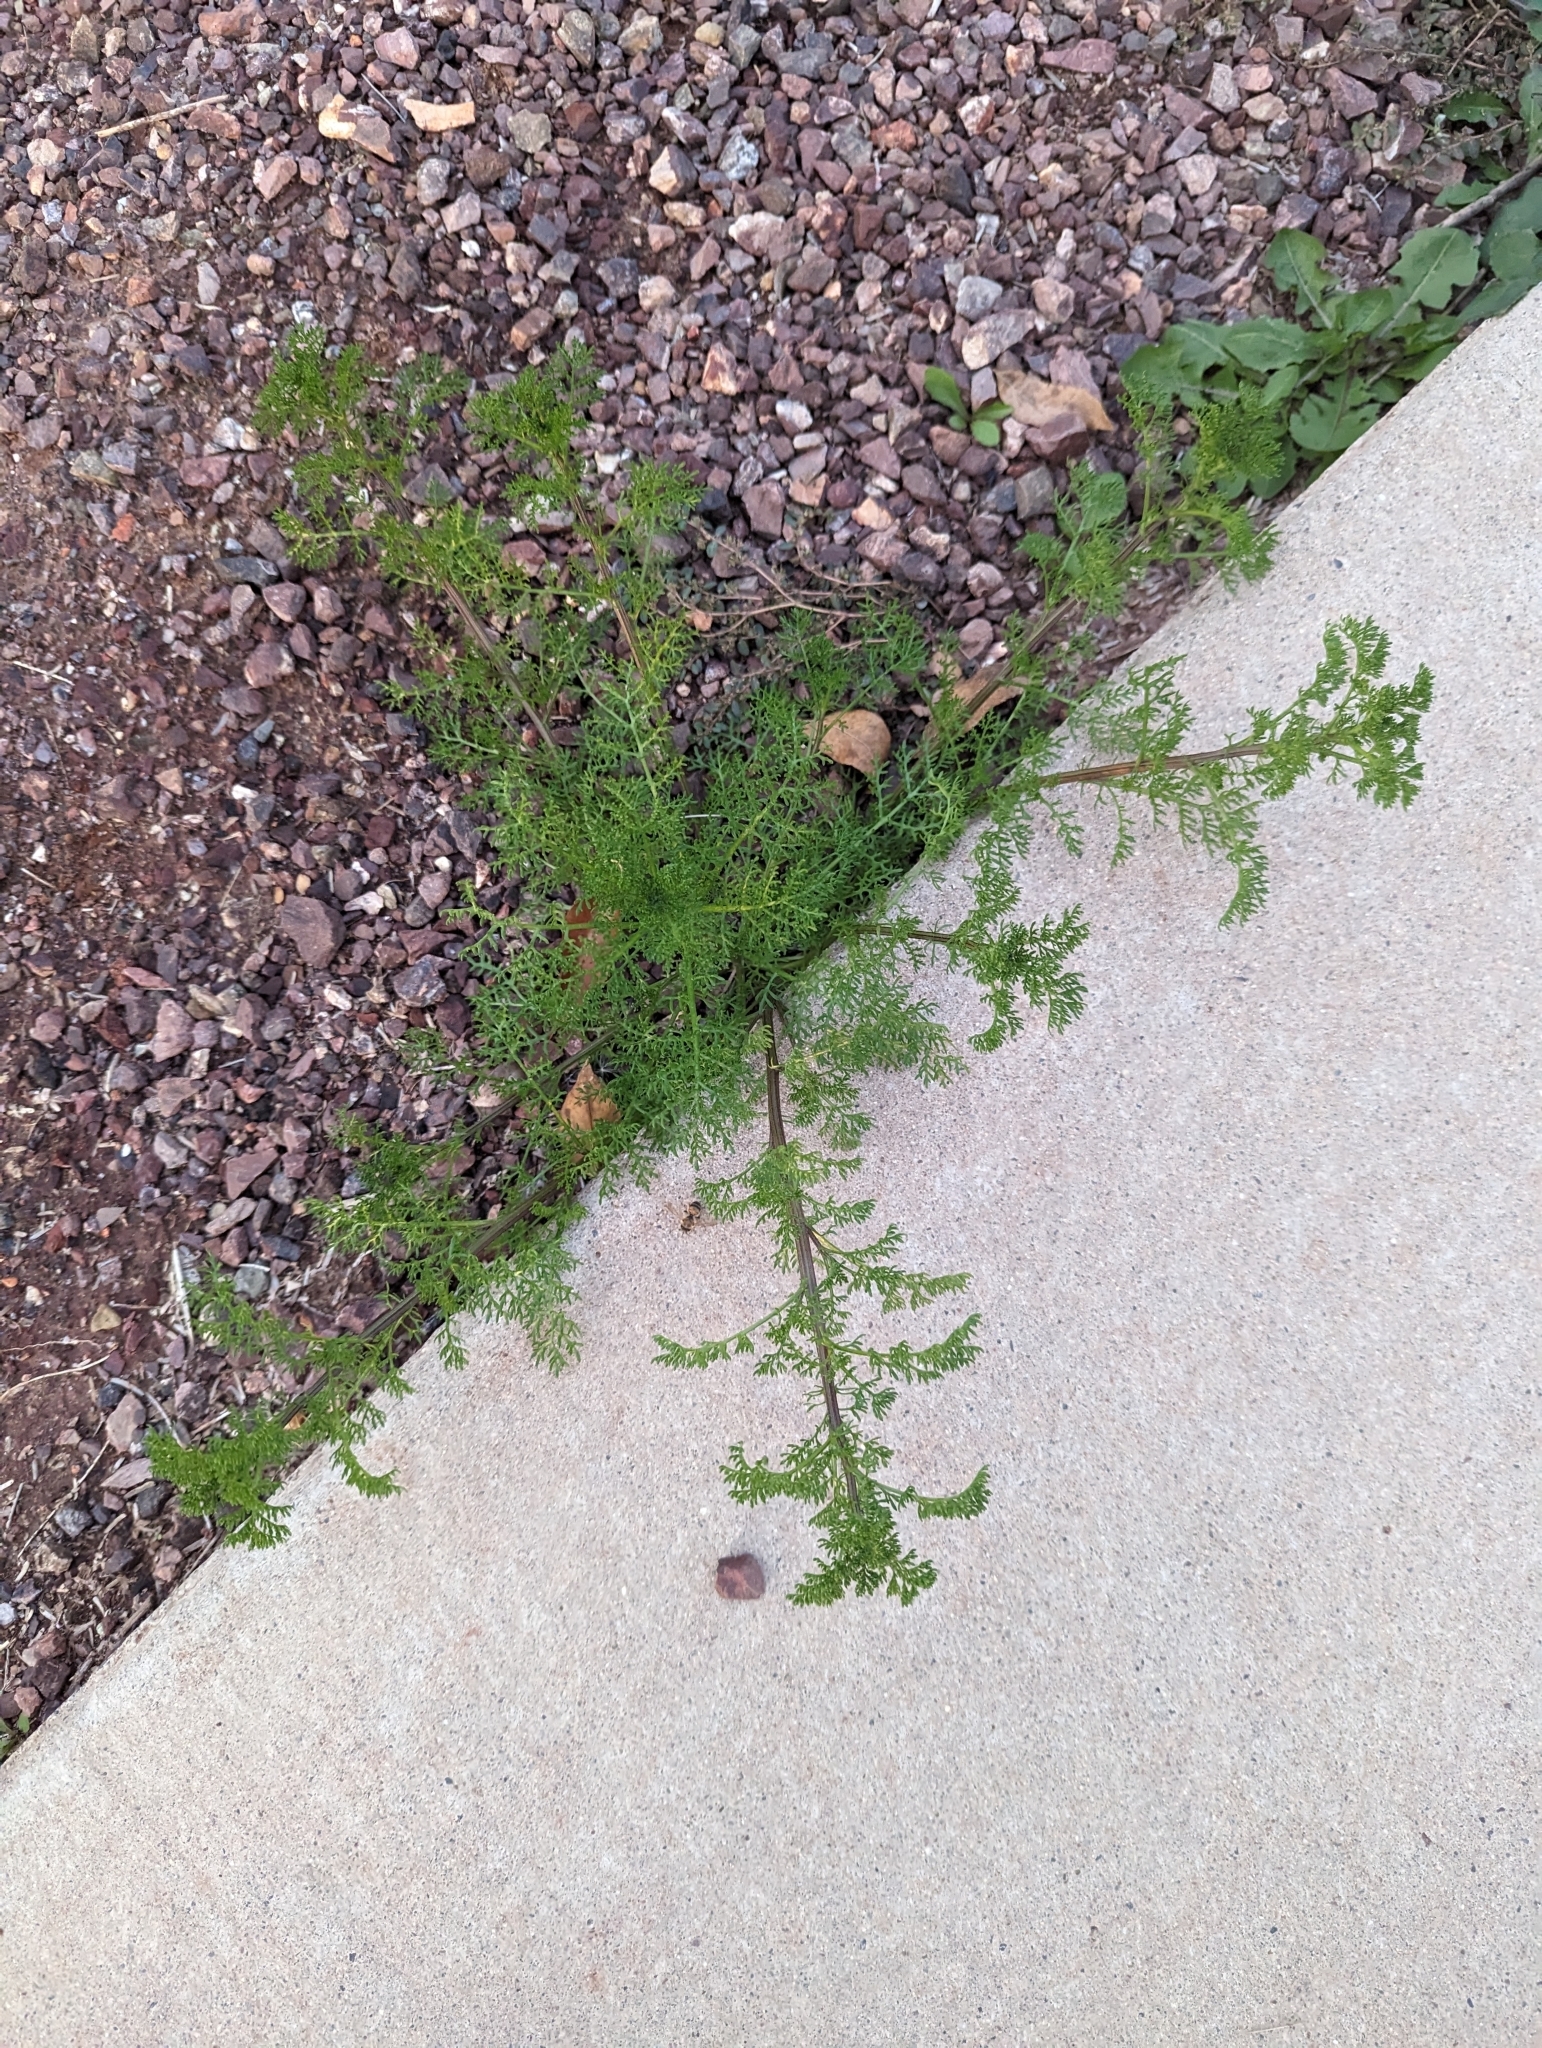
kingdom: Plantae
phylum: Tracheophyta
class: Magnoliopsida
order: Asterales
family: Asteraceae
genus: Oncosiphon
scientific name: Oncosiphon pilulifer
